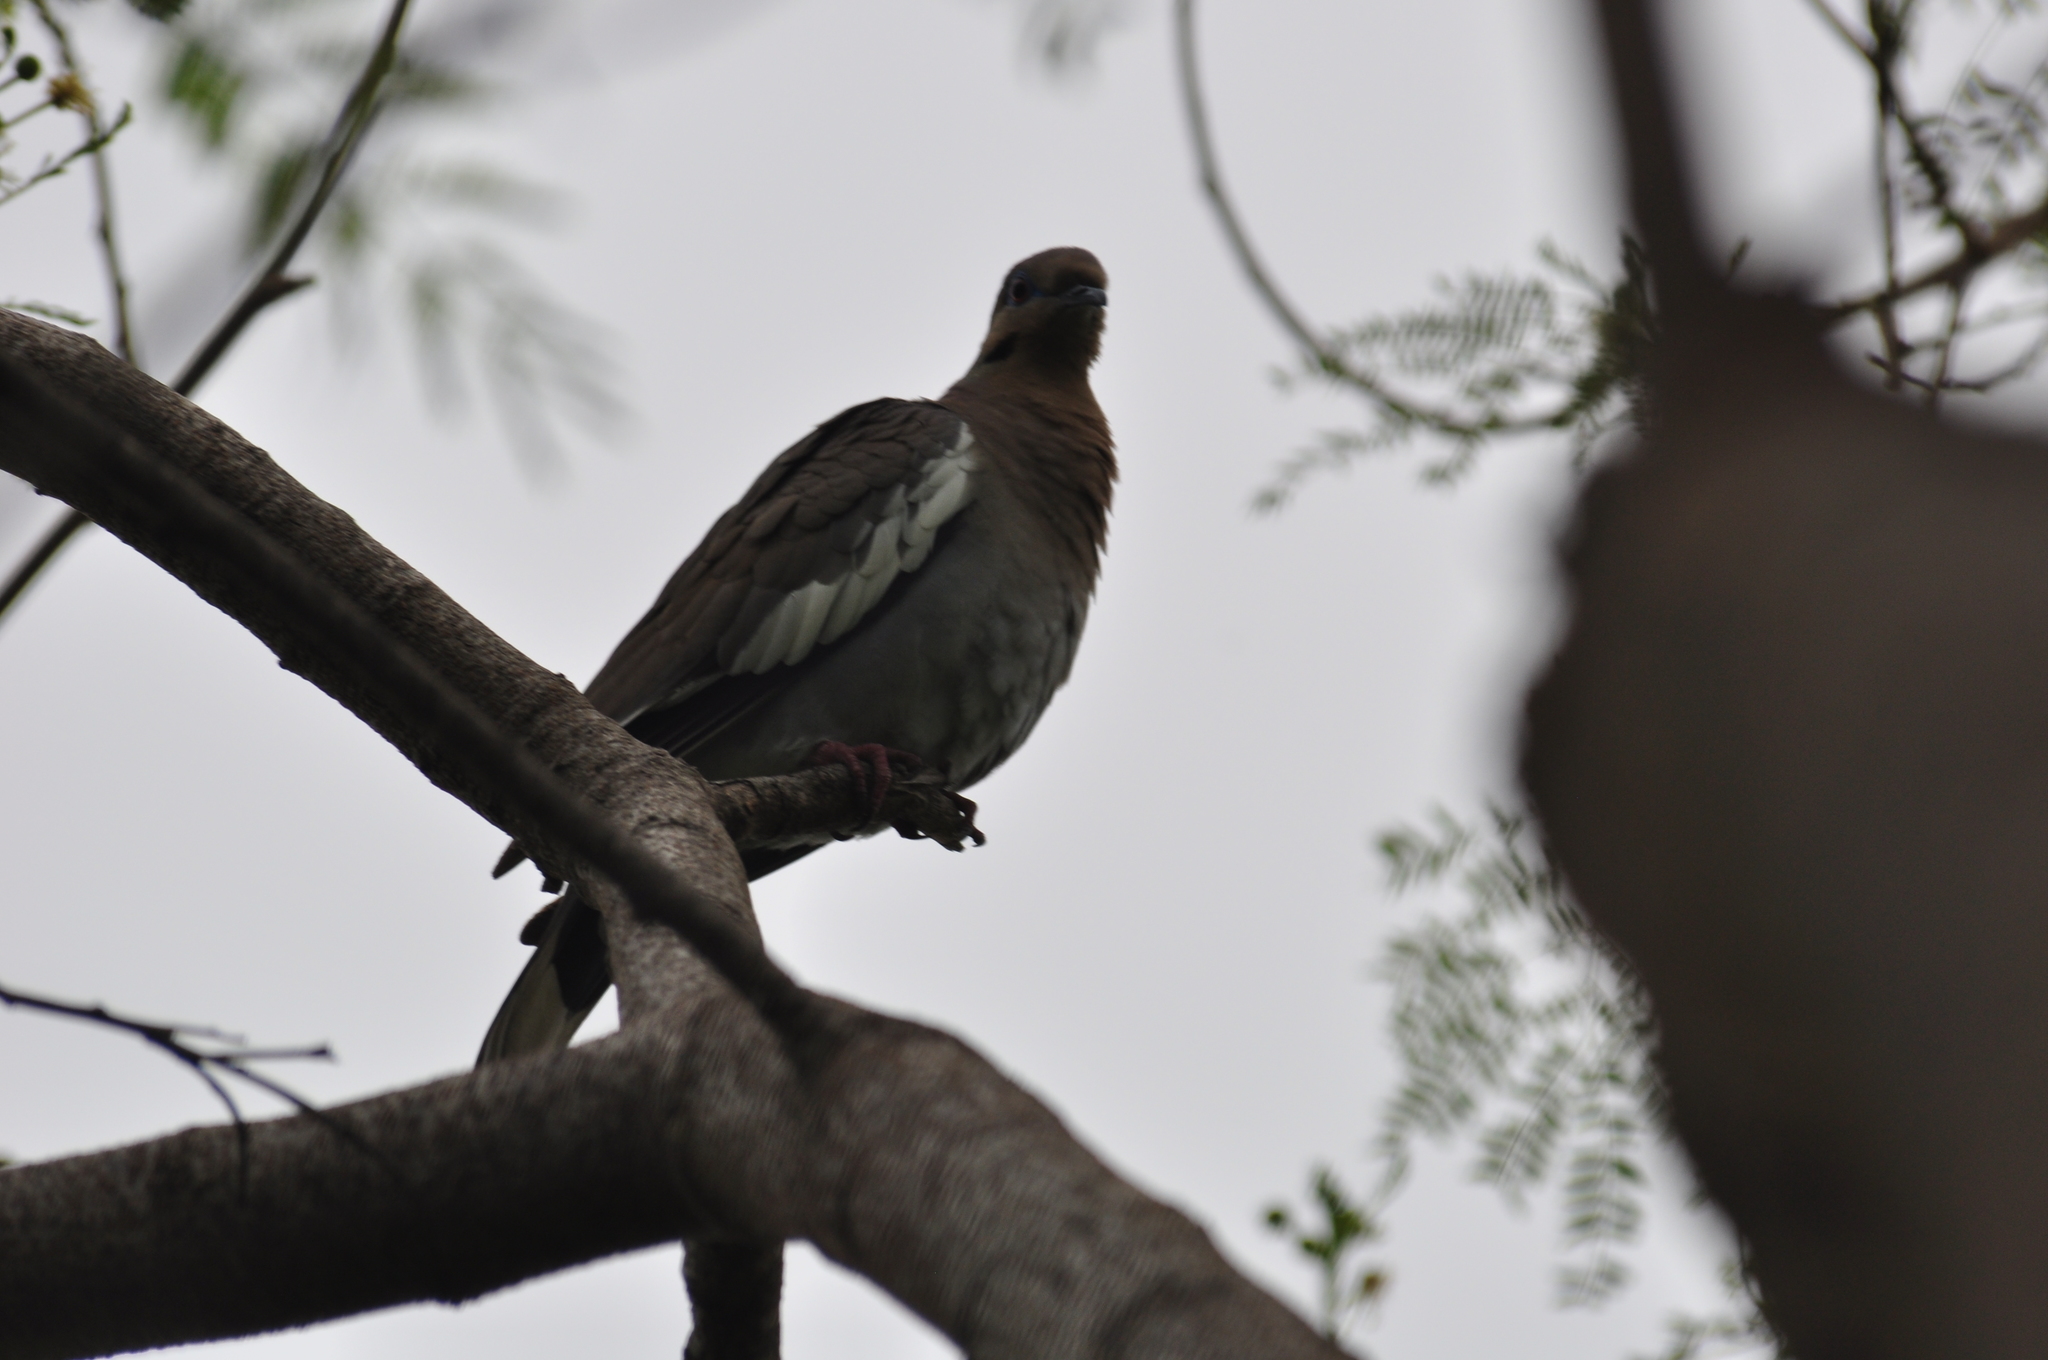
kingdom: Animalia
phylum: Chordata
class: Aves
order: Columbiformes
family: Columbidae
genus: Zenaida
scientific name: Zenaida asiatica
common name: White-winged dove
